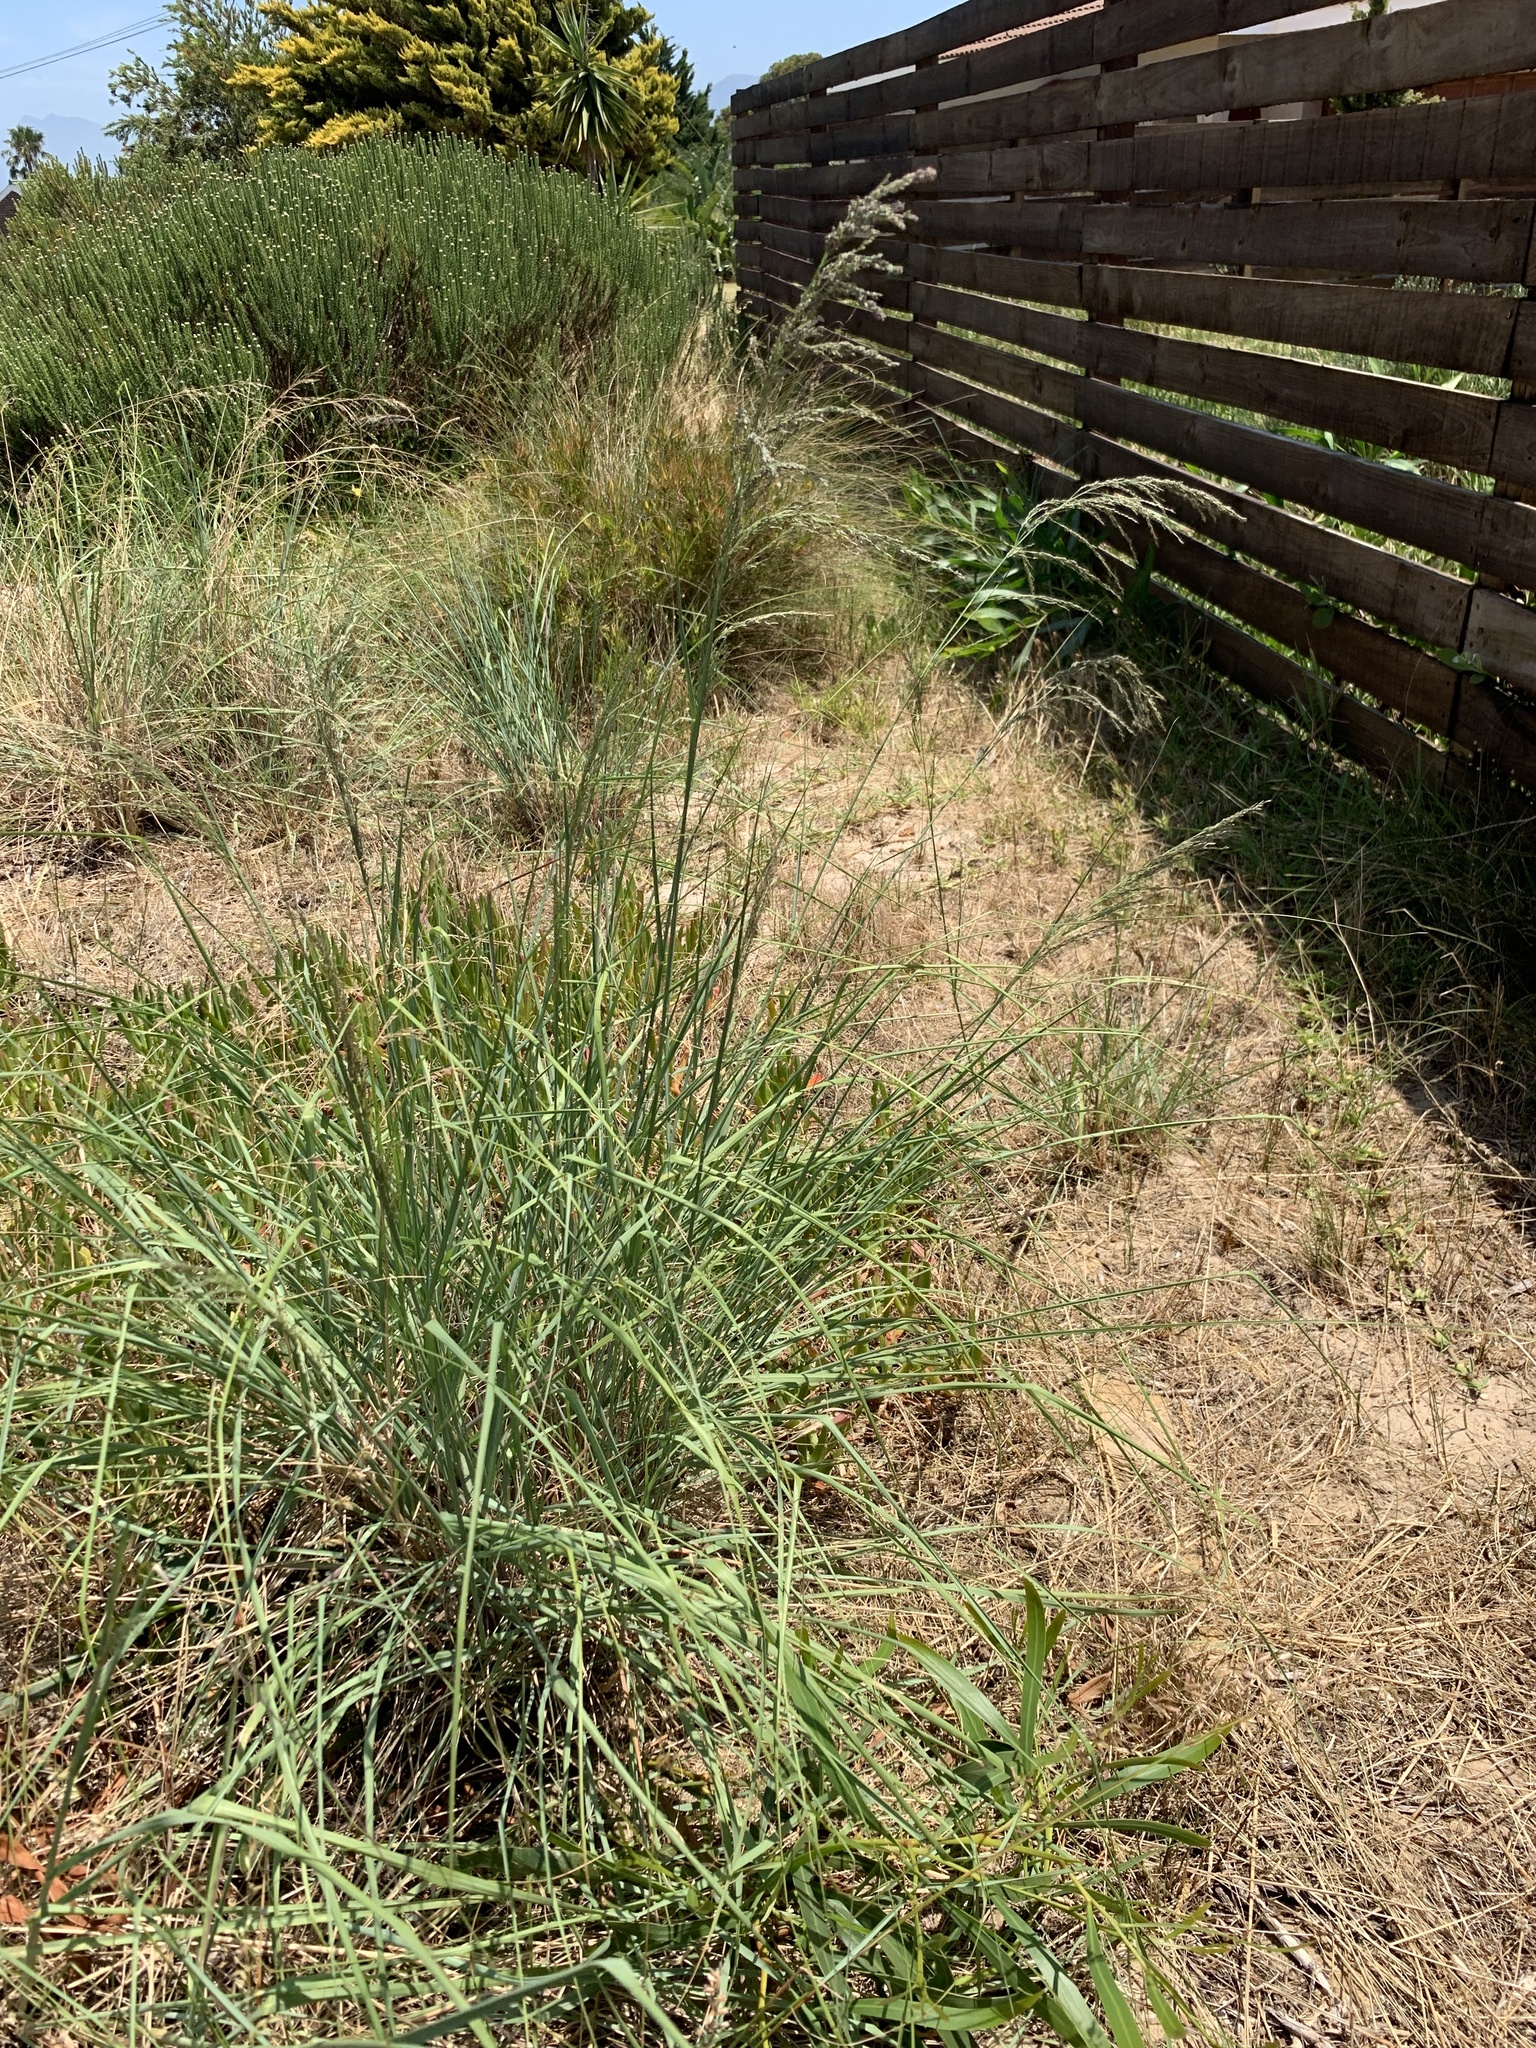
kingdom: Plantae
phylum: Tracheophyta
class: Liliopsida
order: Poales
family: Poaceae
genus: Eragrostis
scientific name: Eragrostis curvula
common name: African love-grass
